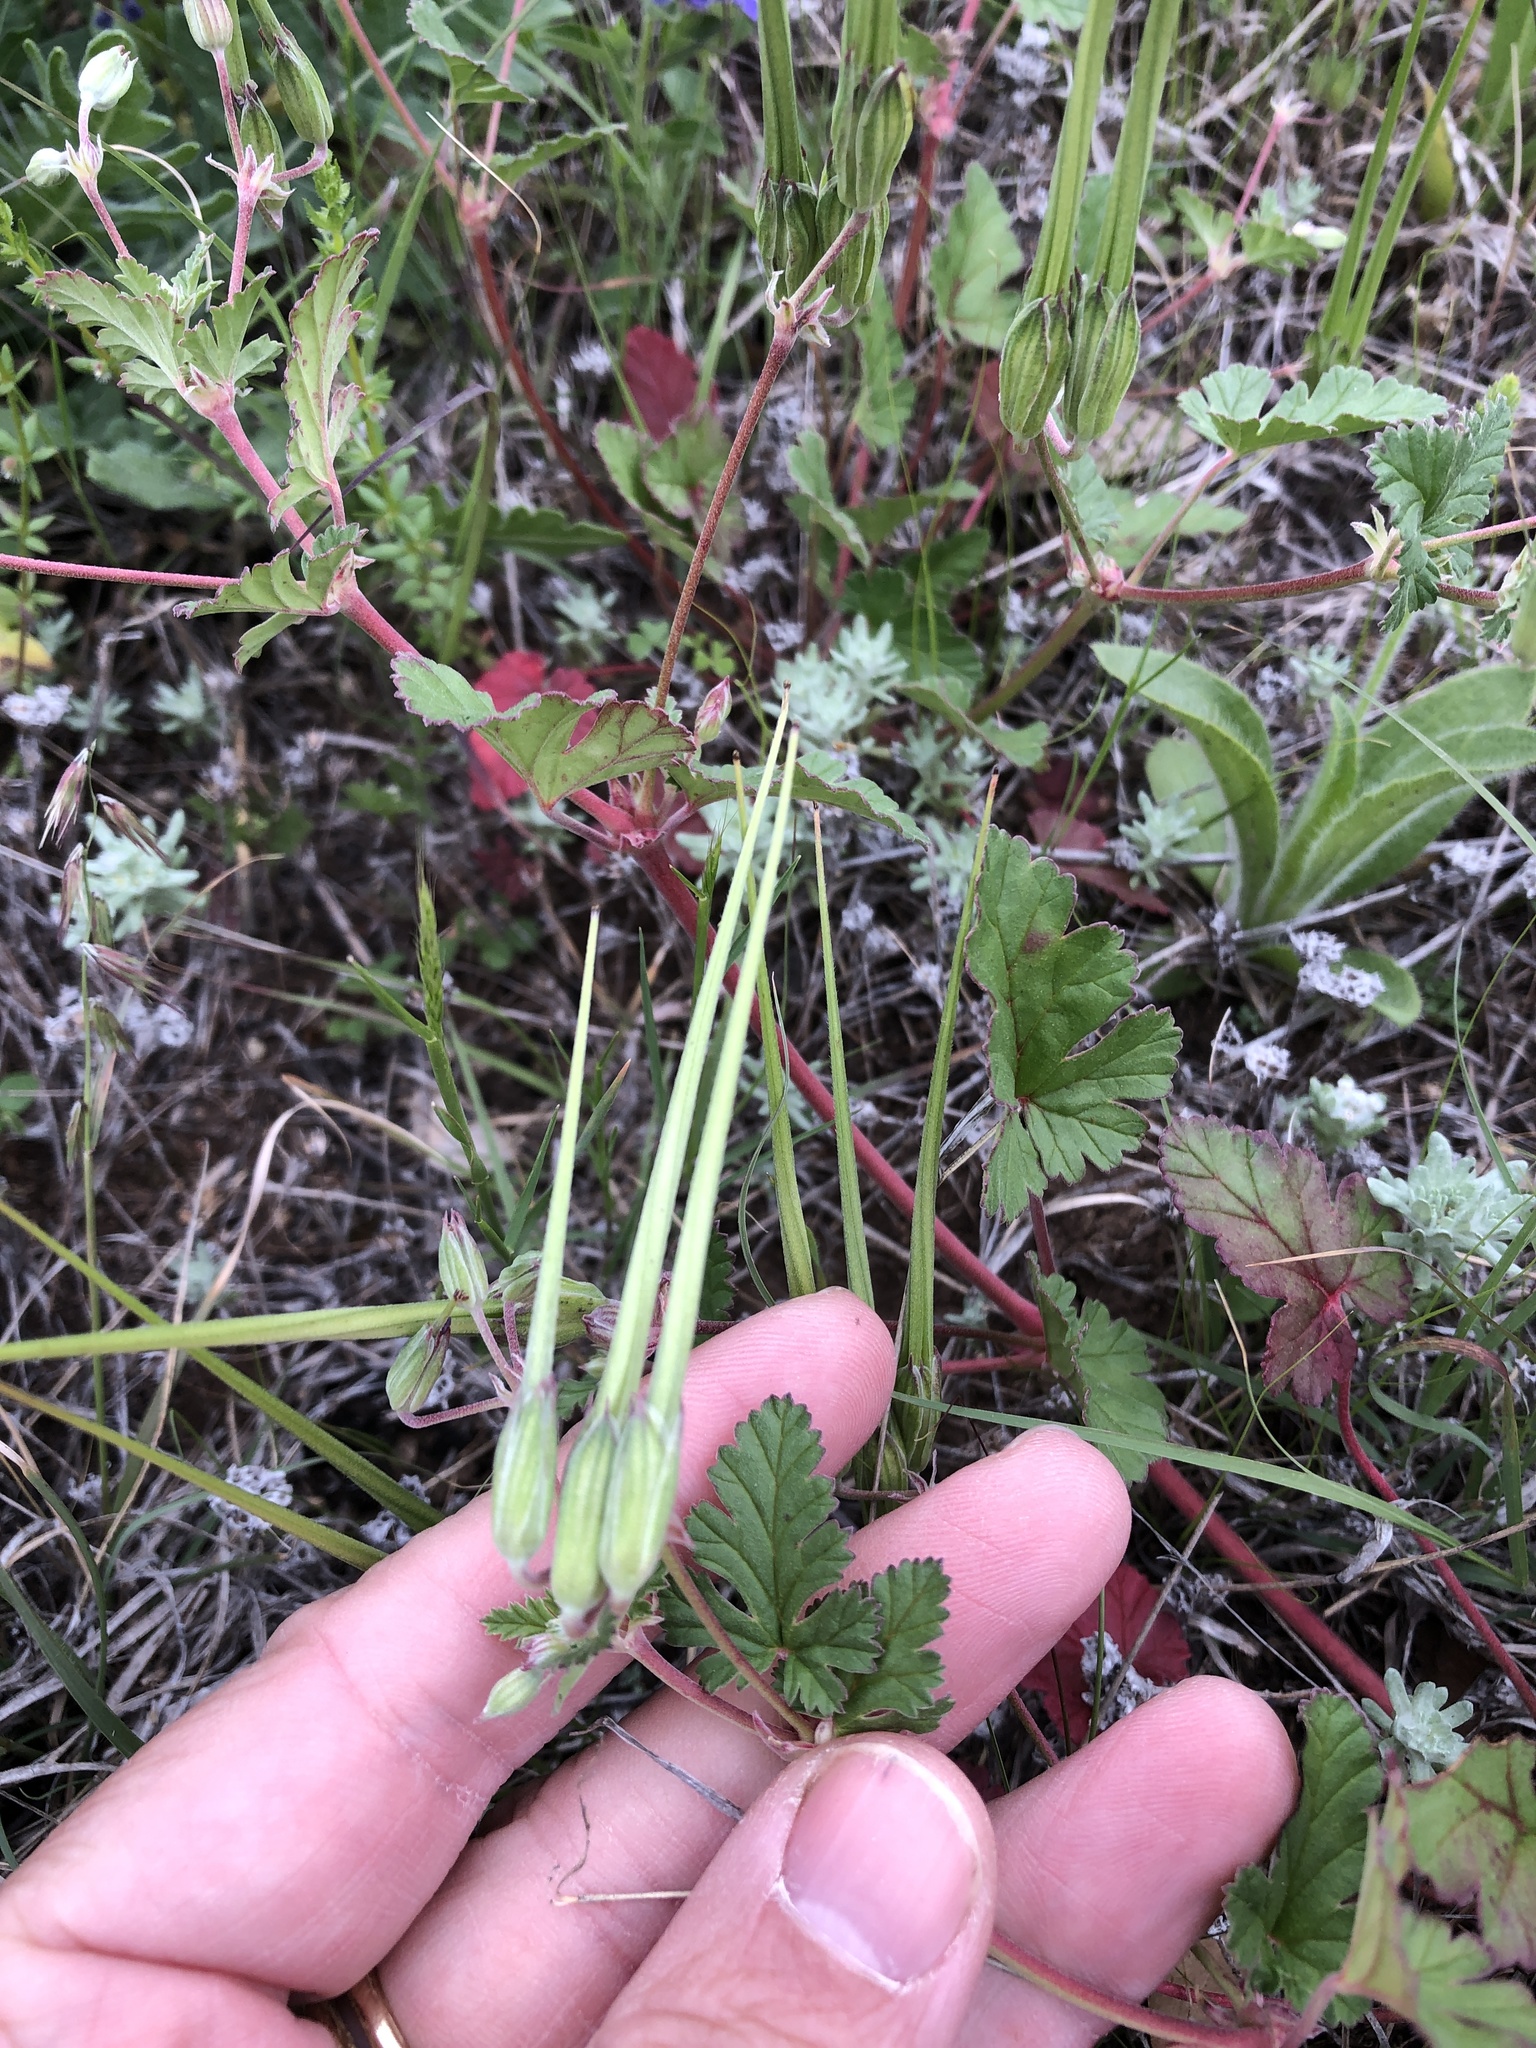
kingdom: Plantae
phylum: Tracheophyta
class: Magnoliopsida
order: Geraniales
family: Geraniaceae
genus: Erodium
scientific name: Erodium texanum
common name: Texas stork's-bill
